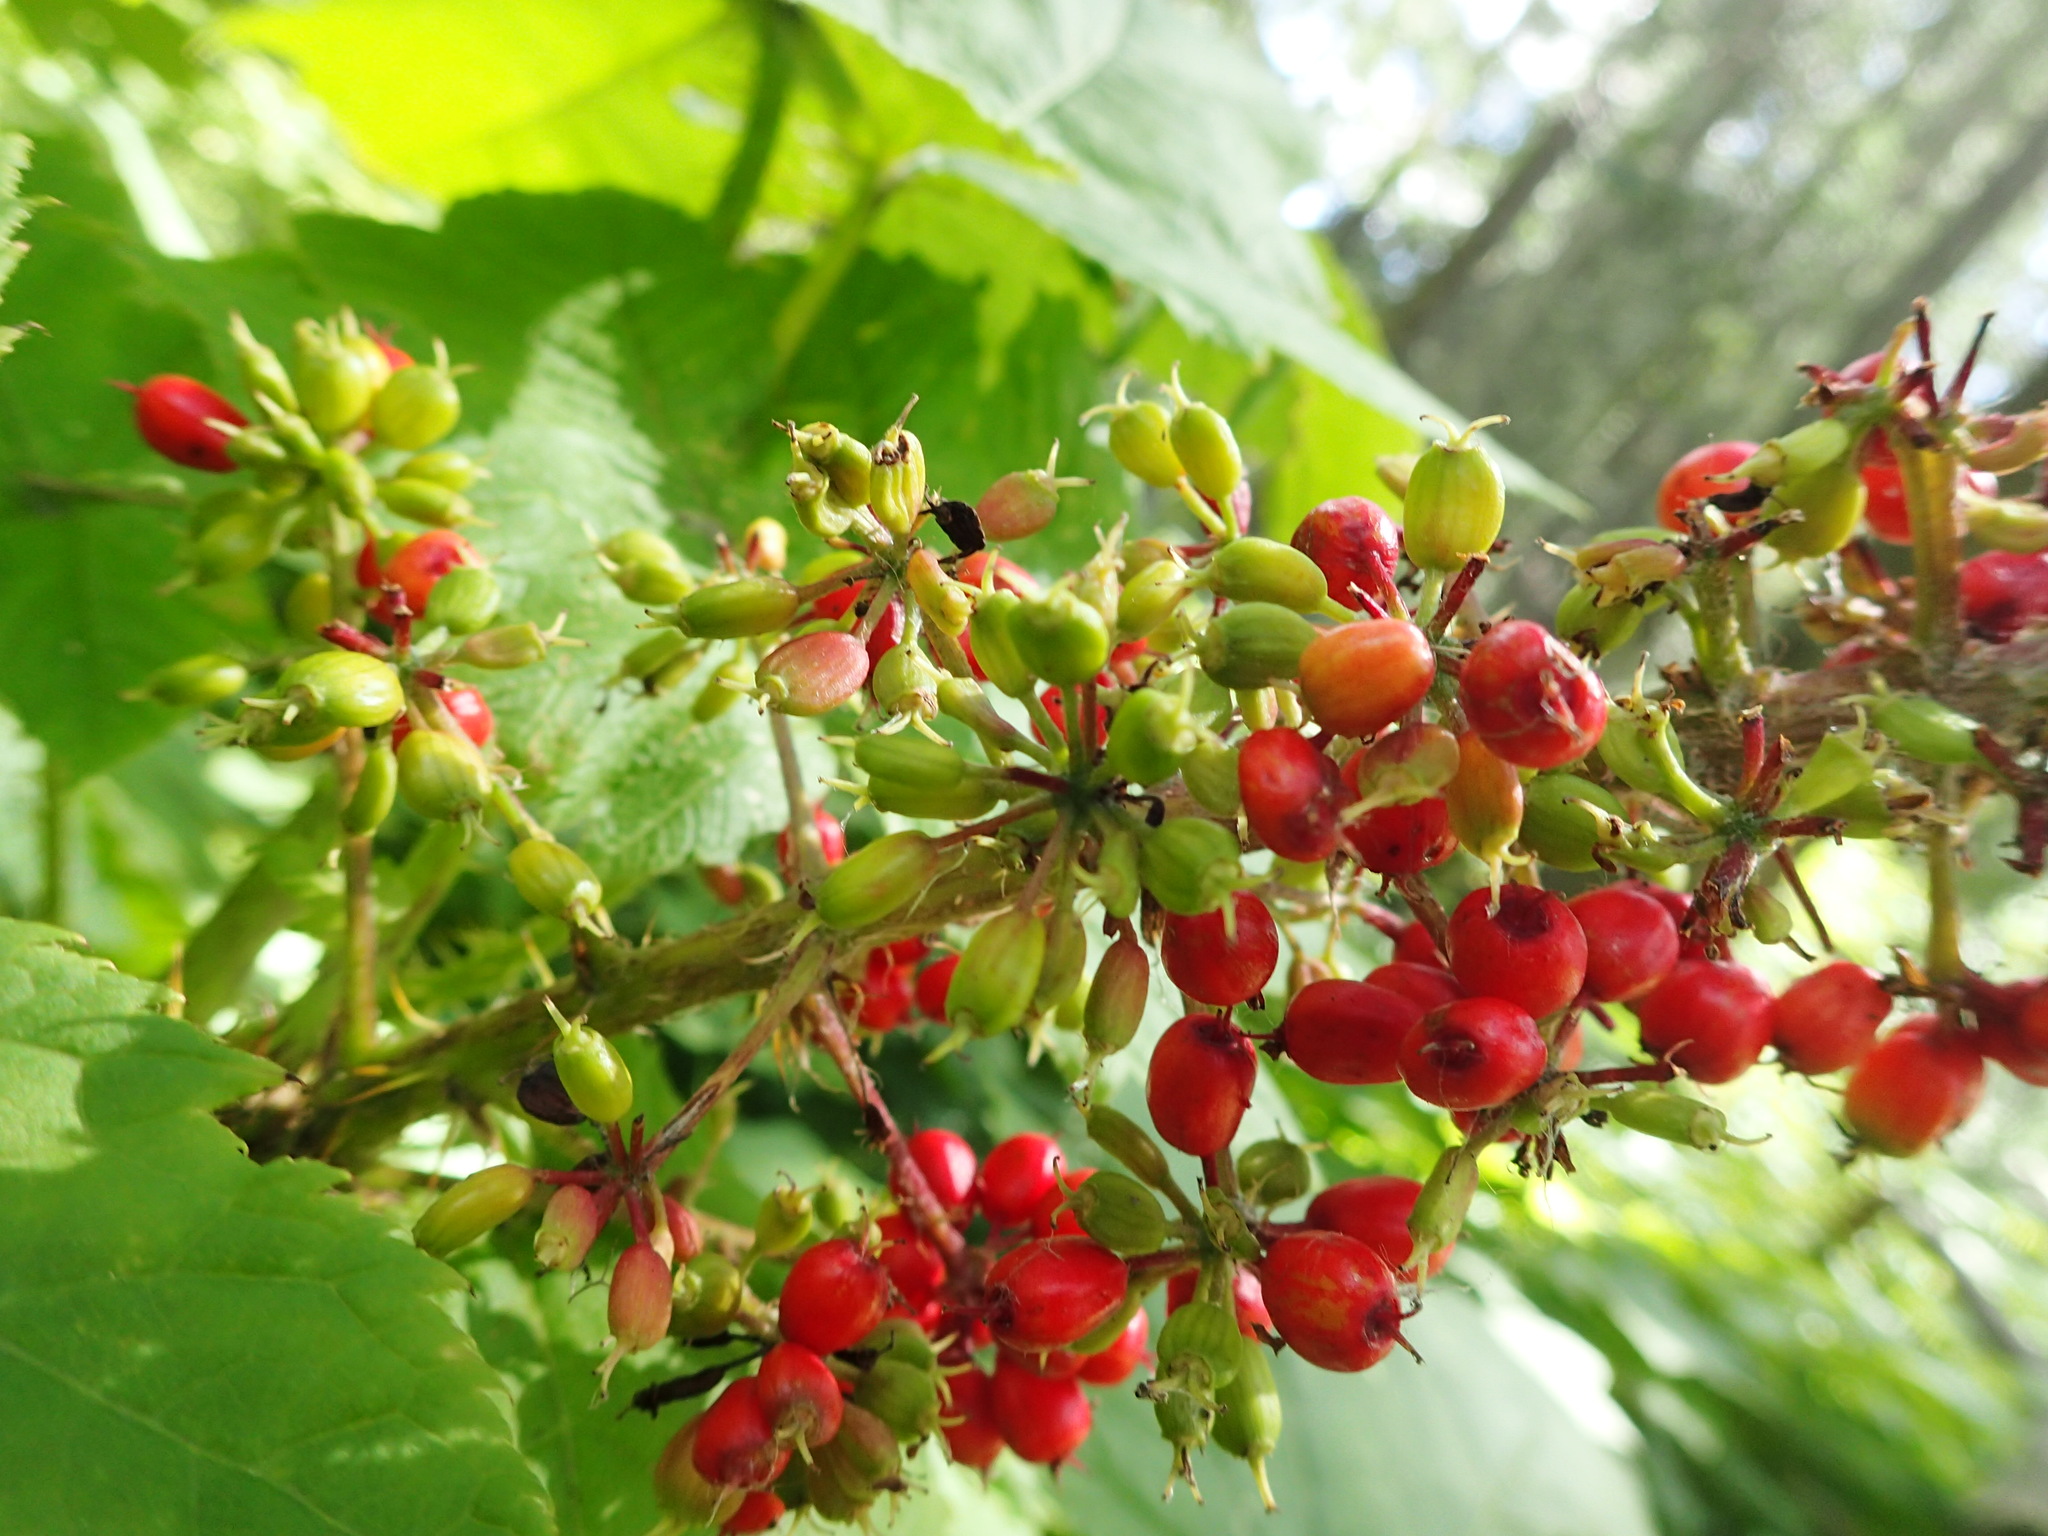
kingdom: Plantae
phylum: Tracheophyta
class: Magnoliopsida
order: Apiales
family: Araliaceae
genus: Oplopanax
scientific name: Oplopanax horridus
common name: Devil's walking-stick
